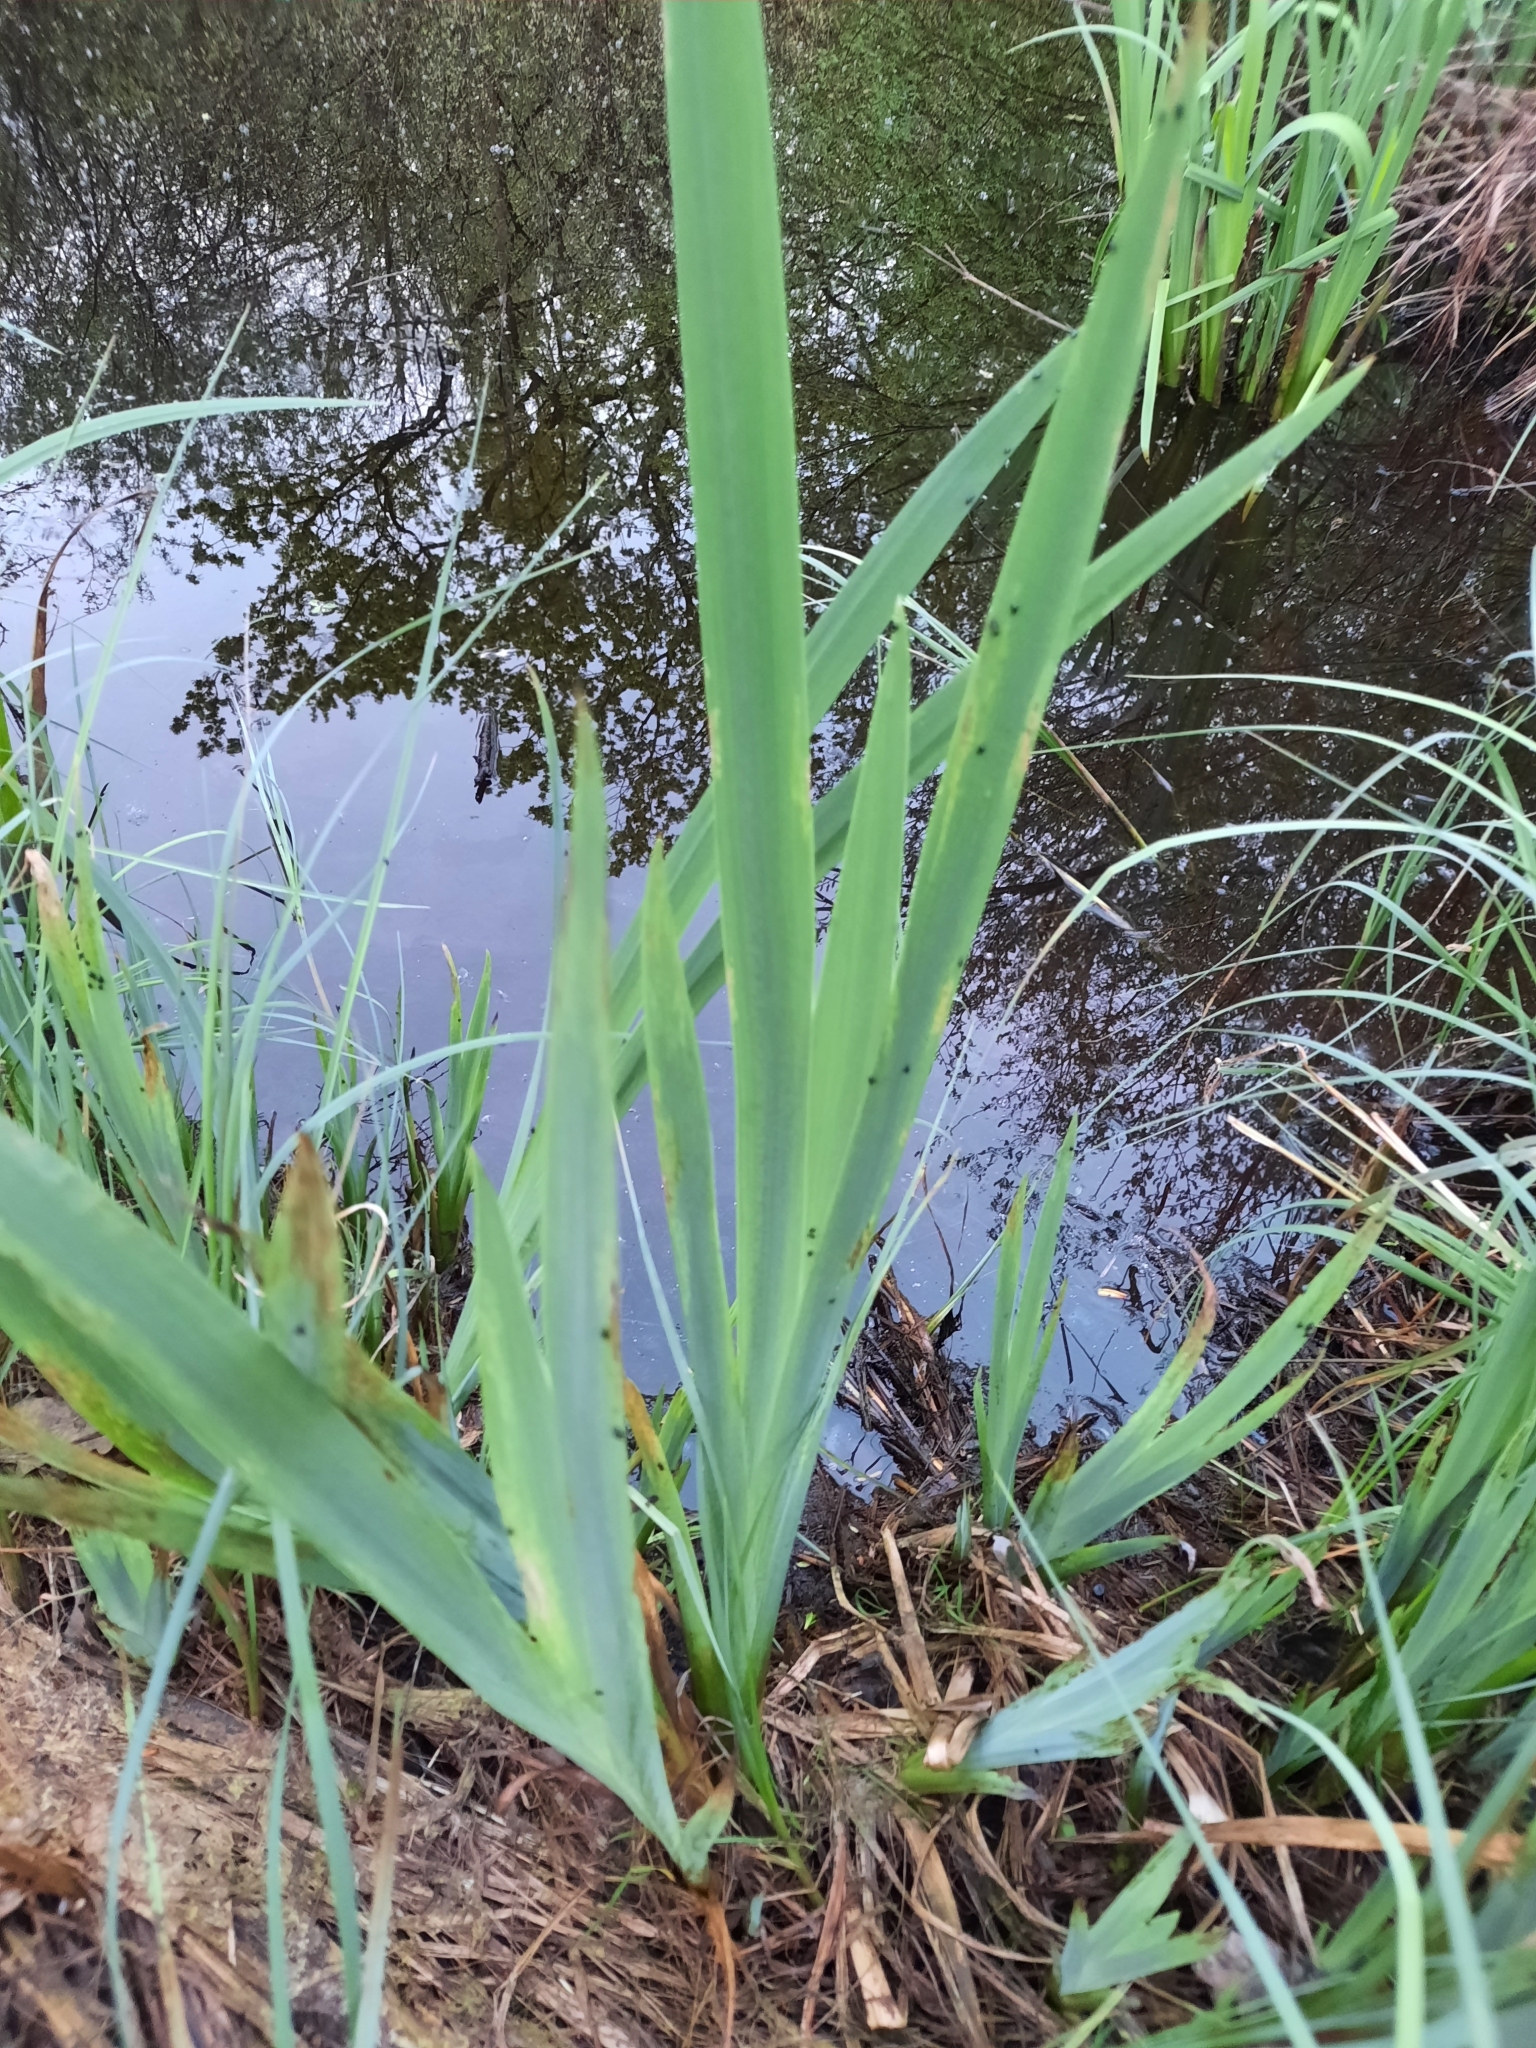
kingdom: Plantae
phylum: Tracheophyta
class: Liliopsida
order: Asparagales
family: Iridaceae
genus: Iris
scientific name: Iris pseudacorus
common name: Yellow flag
